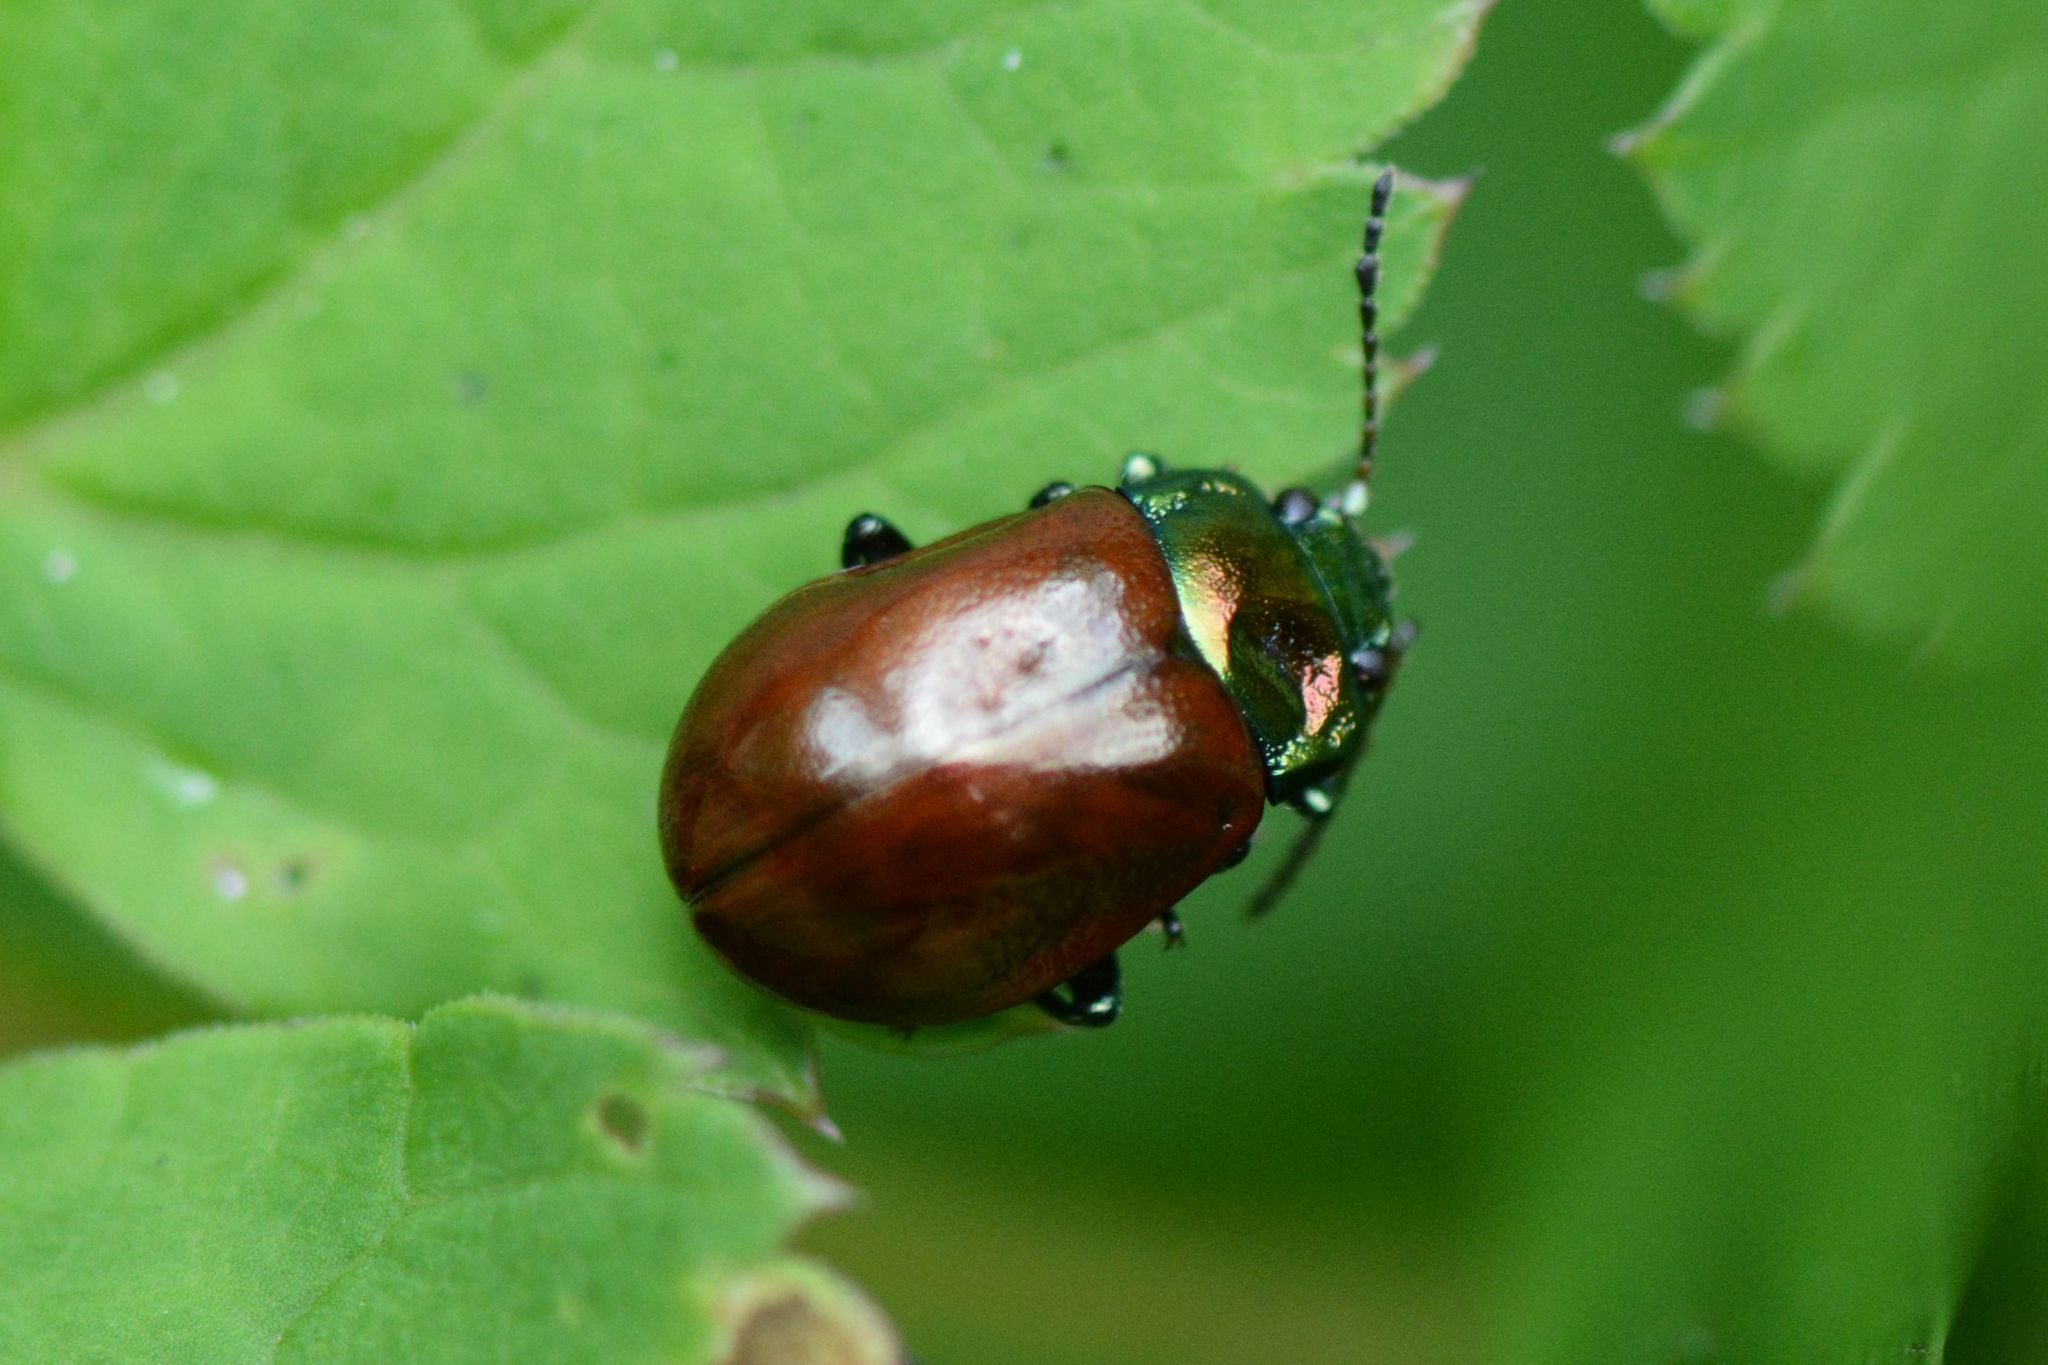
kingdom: Animalia
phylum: Arthropoda
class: Insecta
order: Coleoptera
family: Chrysomelidae
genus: Chrysomela
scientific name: Chrysomela polita
